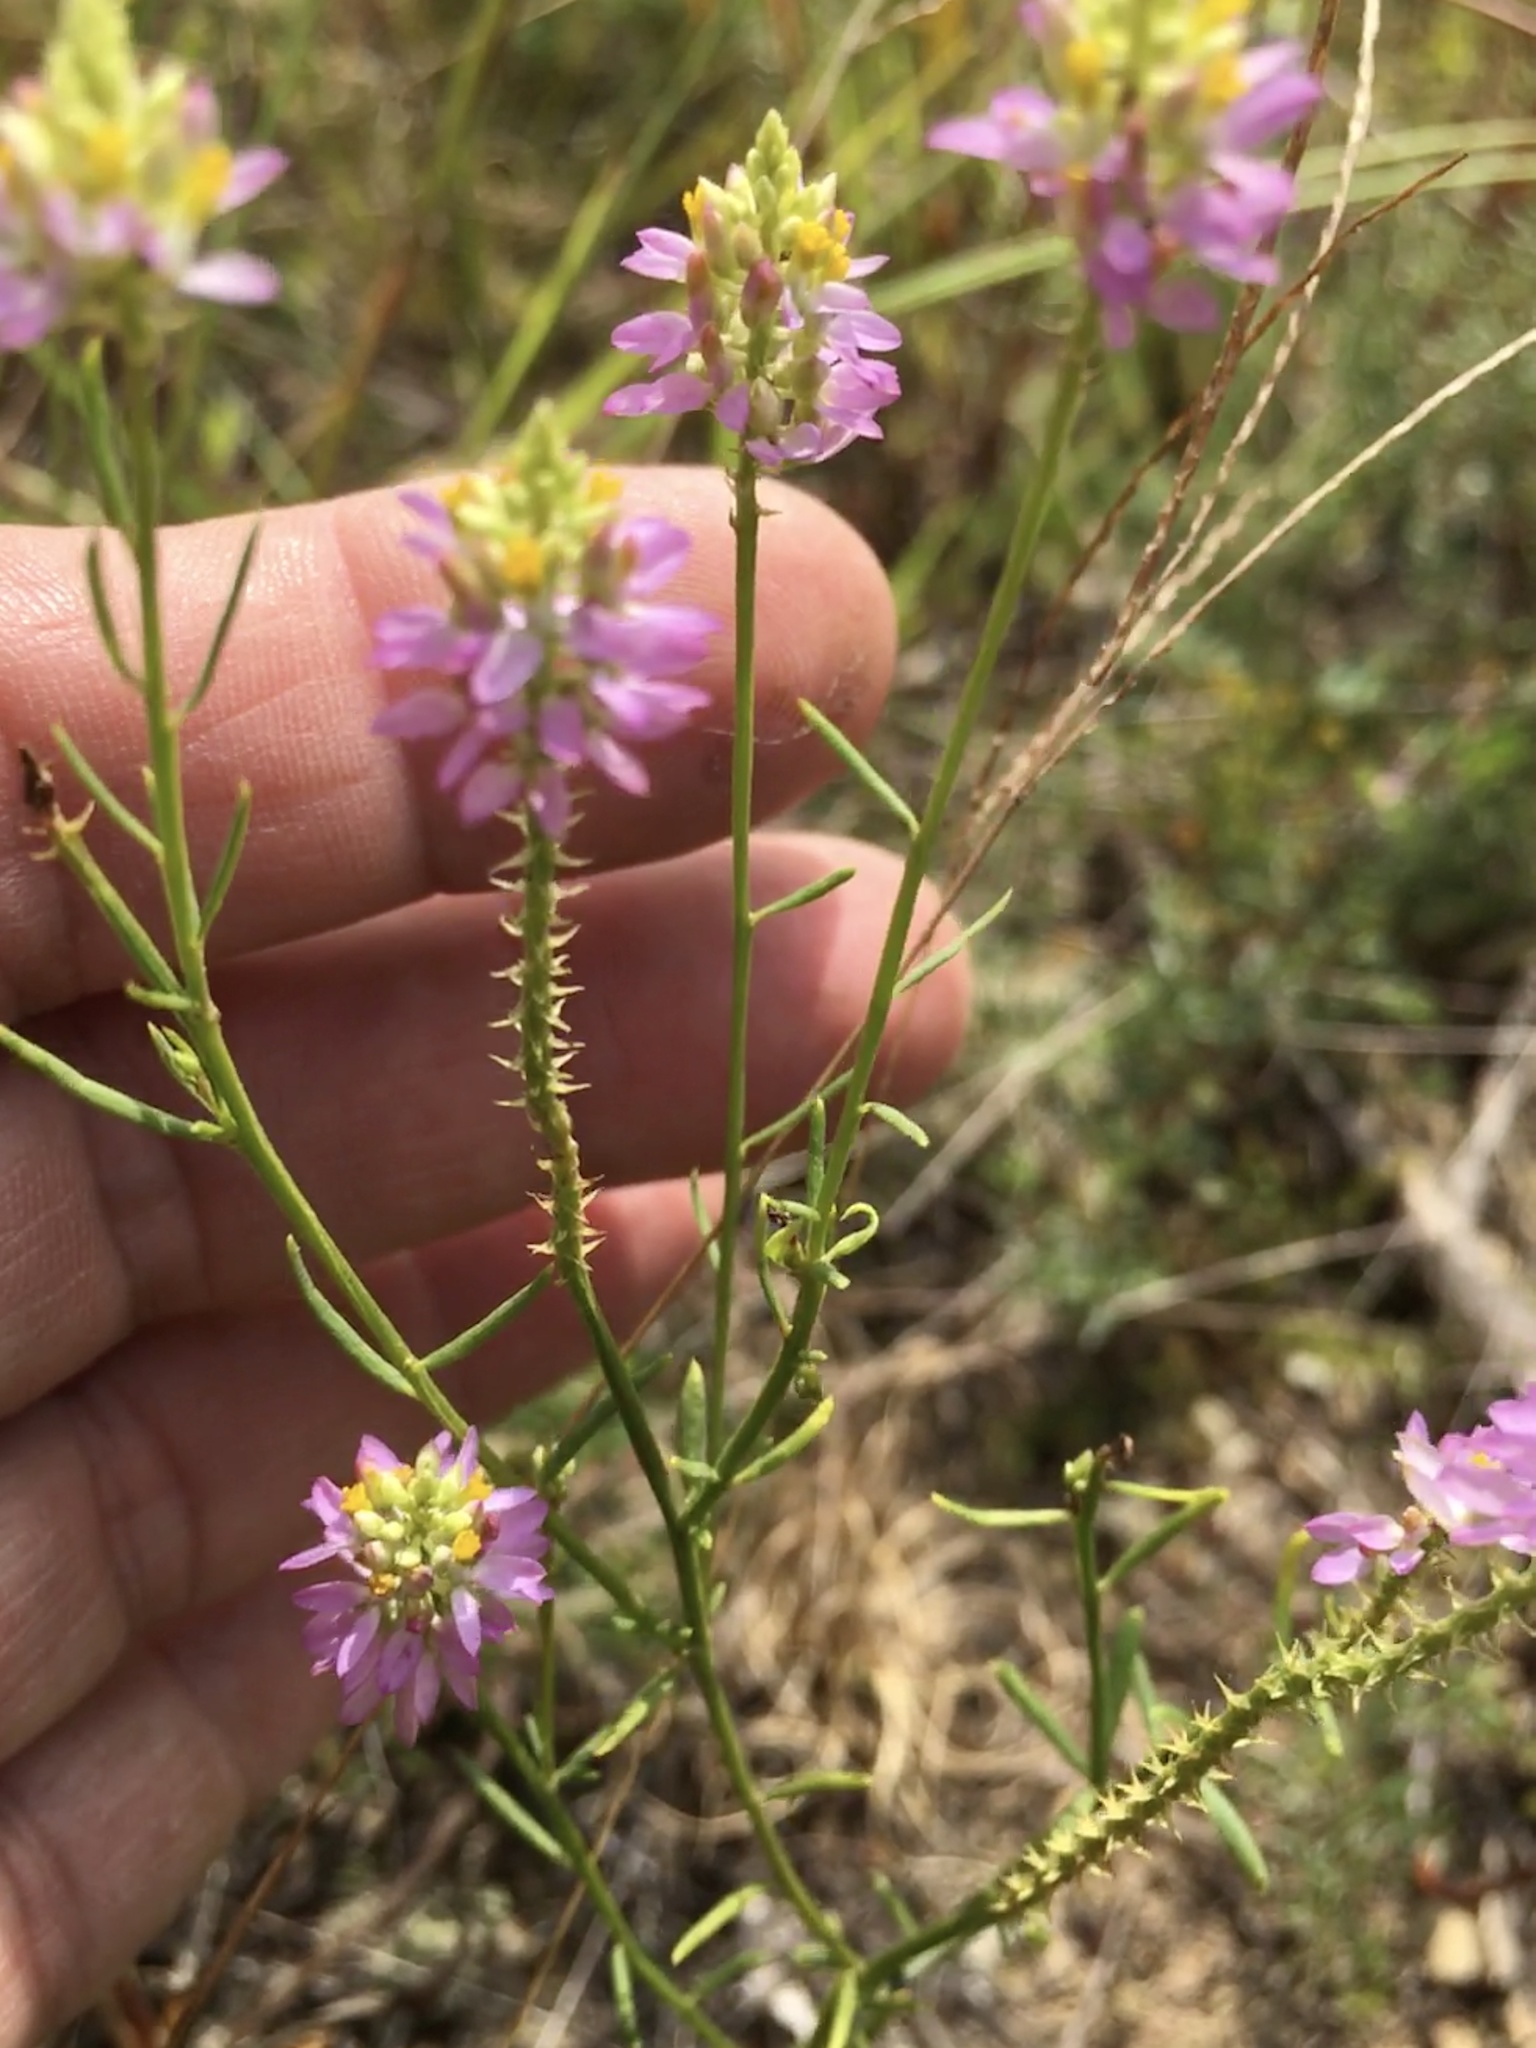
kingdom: Plantae
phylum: Tracheophyta
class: Magnoliopsida
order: Fabales
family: Polygalaceae
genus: Polygala
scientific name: Polygala curtissii
